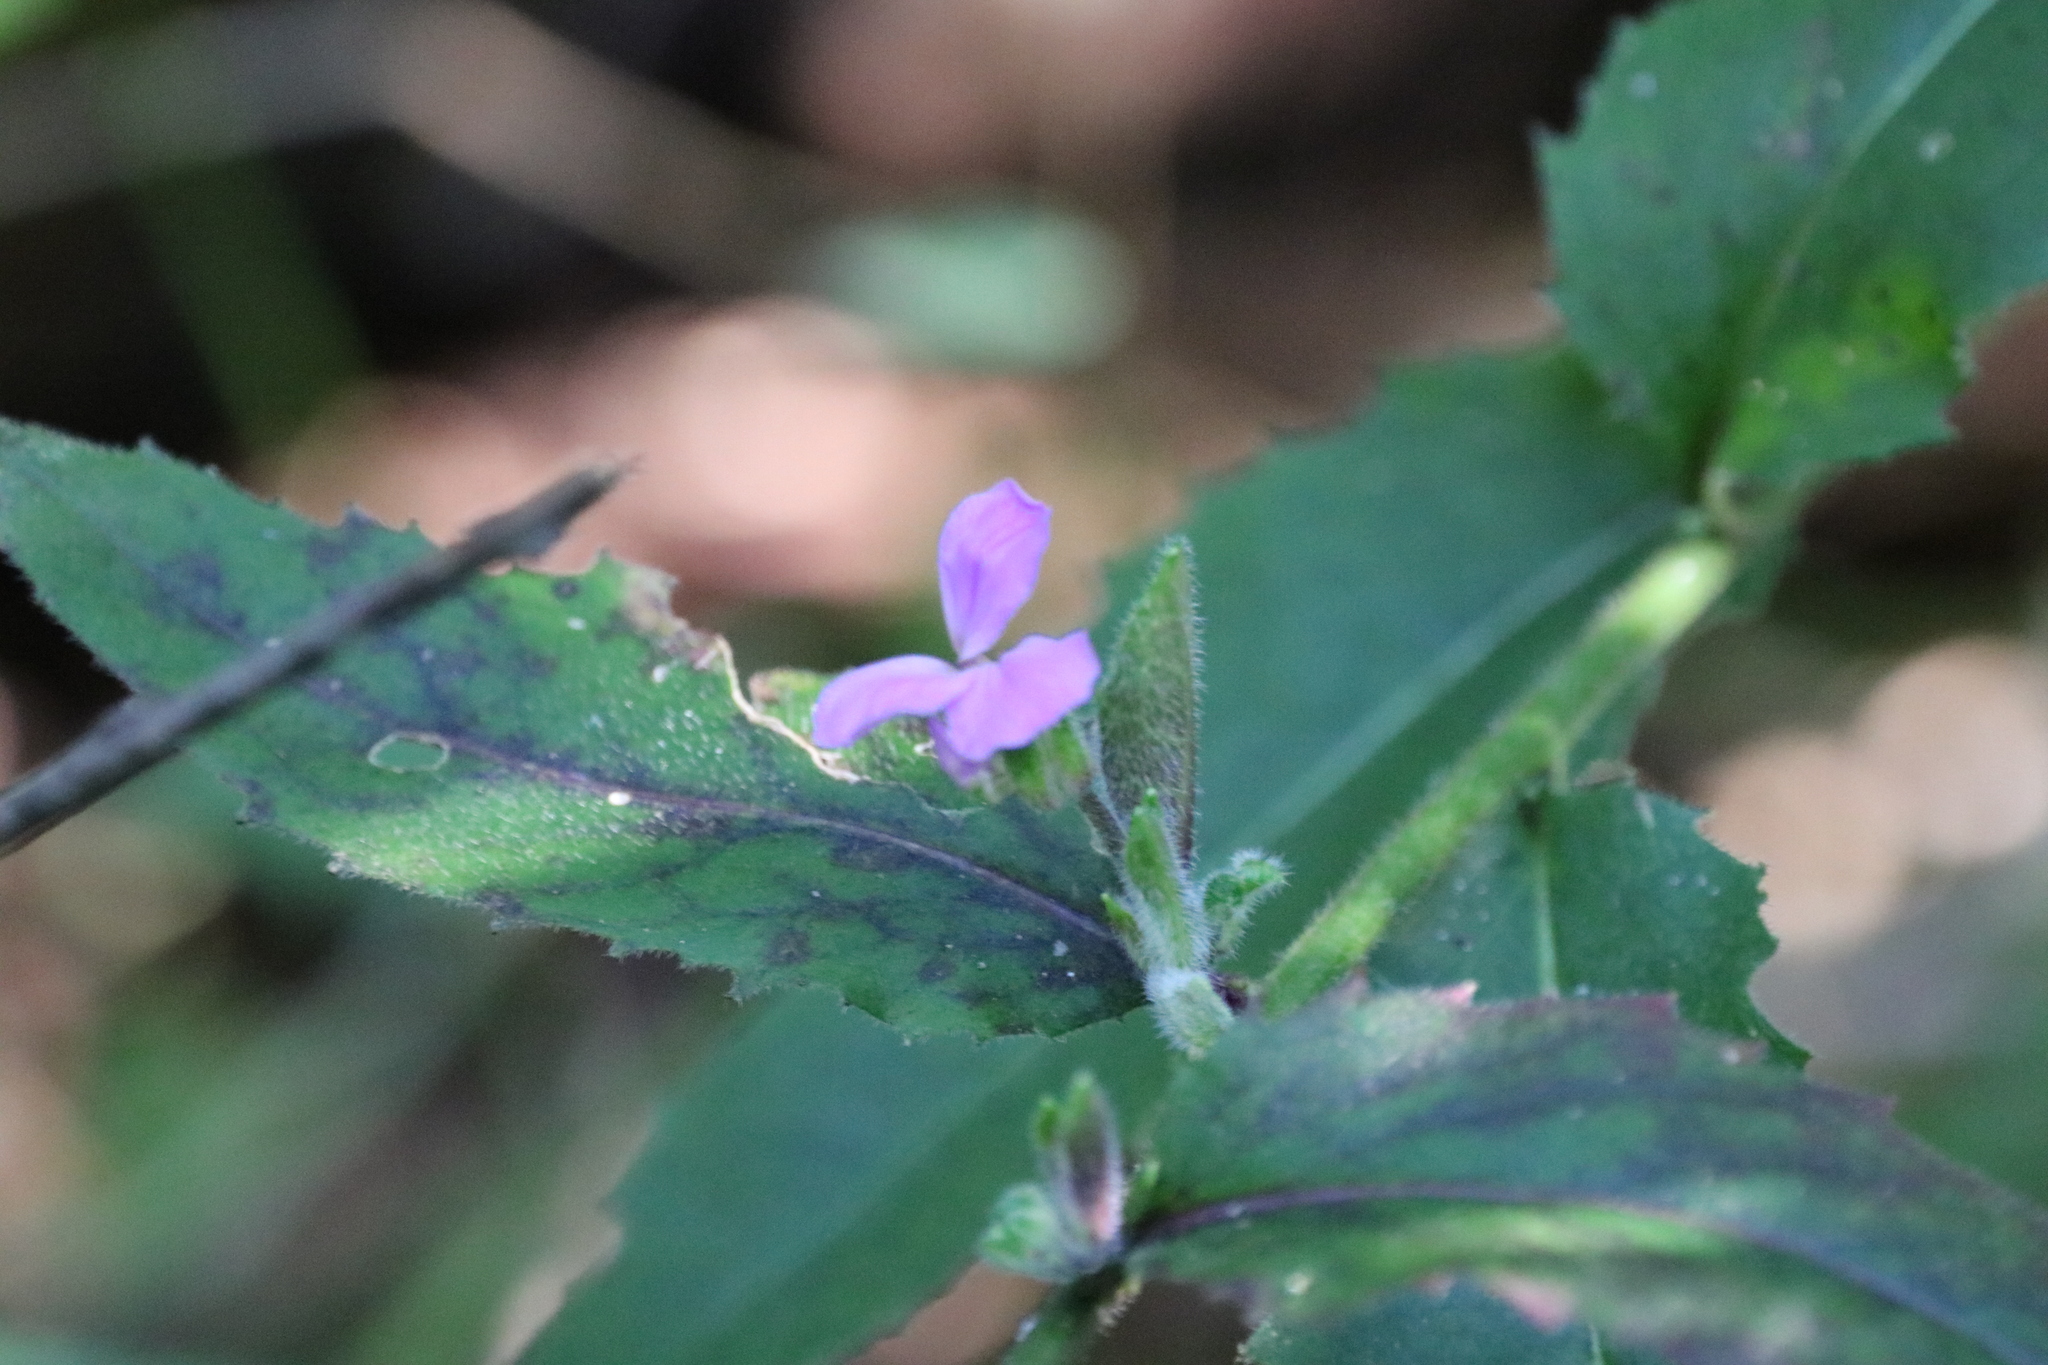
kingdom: Plantae
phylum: Tracheophyta
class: Magnoliopsida
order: Brassicales
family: Brassicaceae
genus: Hesperis
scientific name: Hesperis matronalis
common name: Dame's-violet
